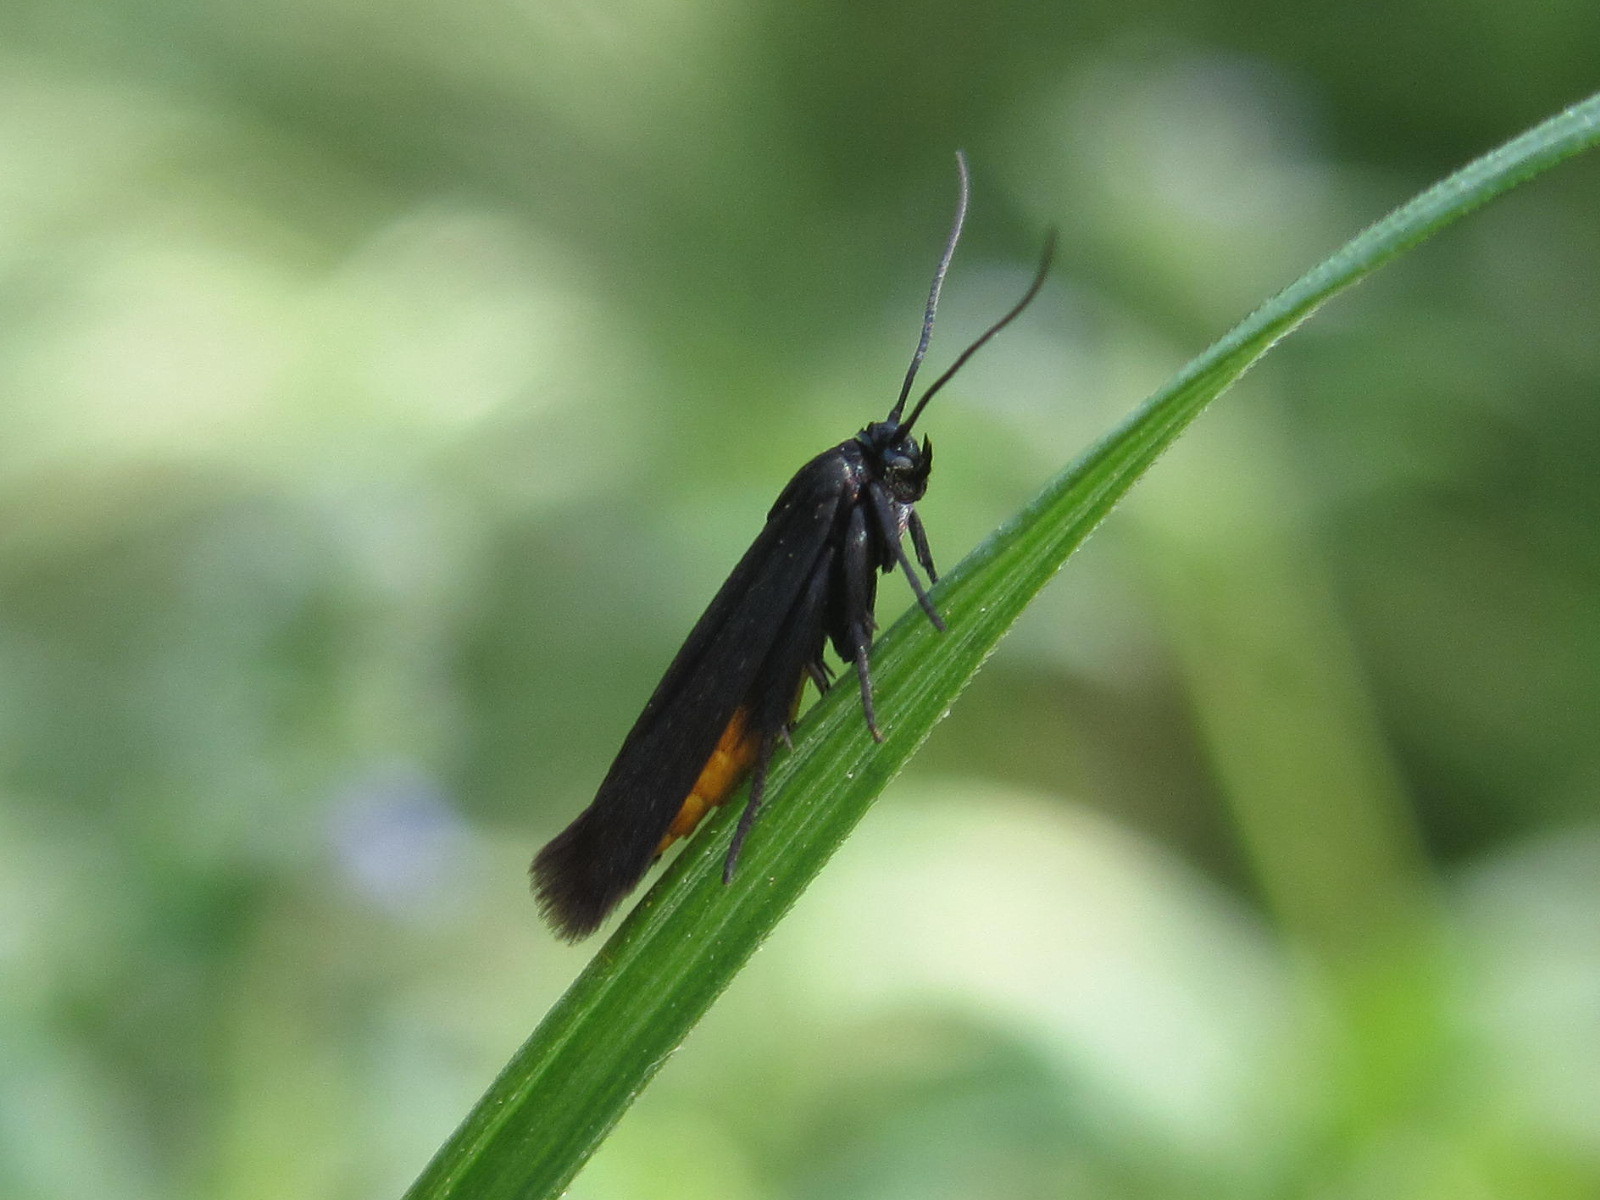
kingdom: Animalia
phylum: Arthropoda
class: Insecta
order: Lepidoptera
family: Scythrididae
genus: Scythris
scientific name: Scythris sinensis
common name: Kentish owlet
